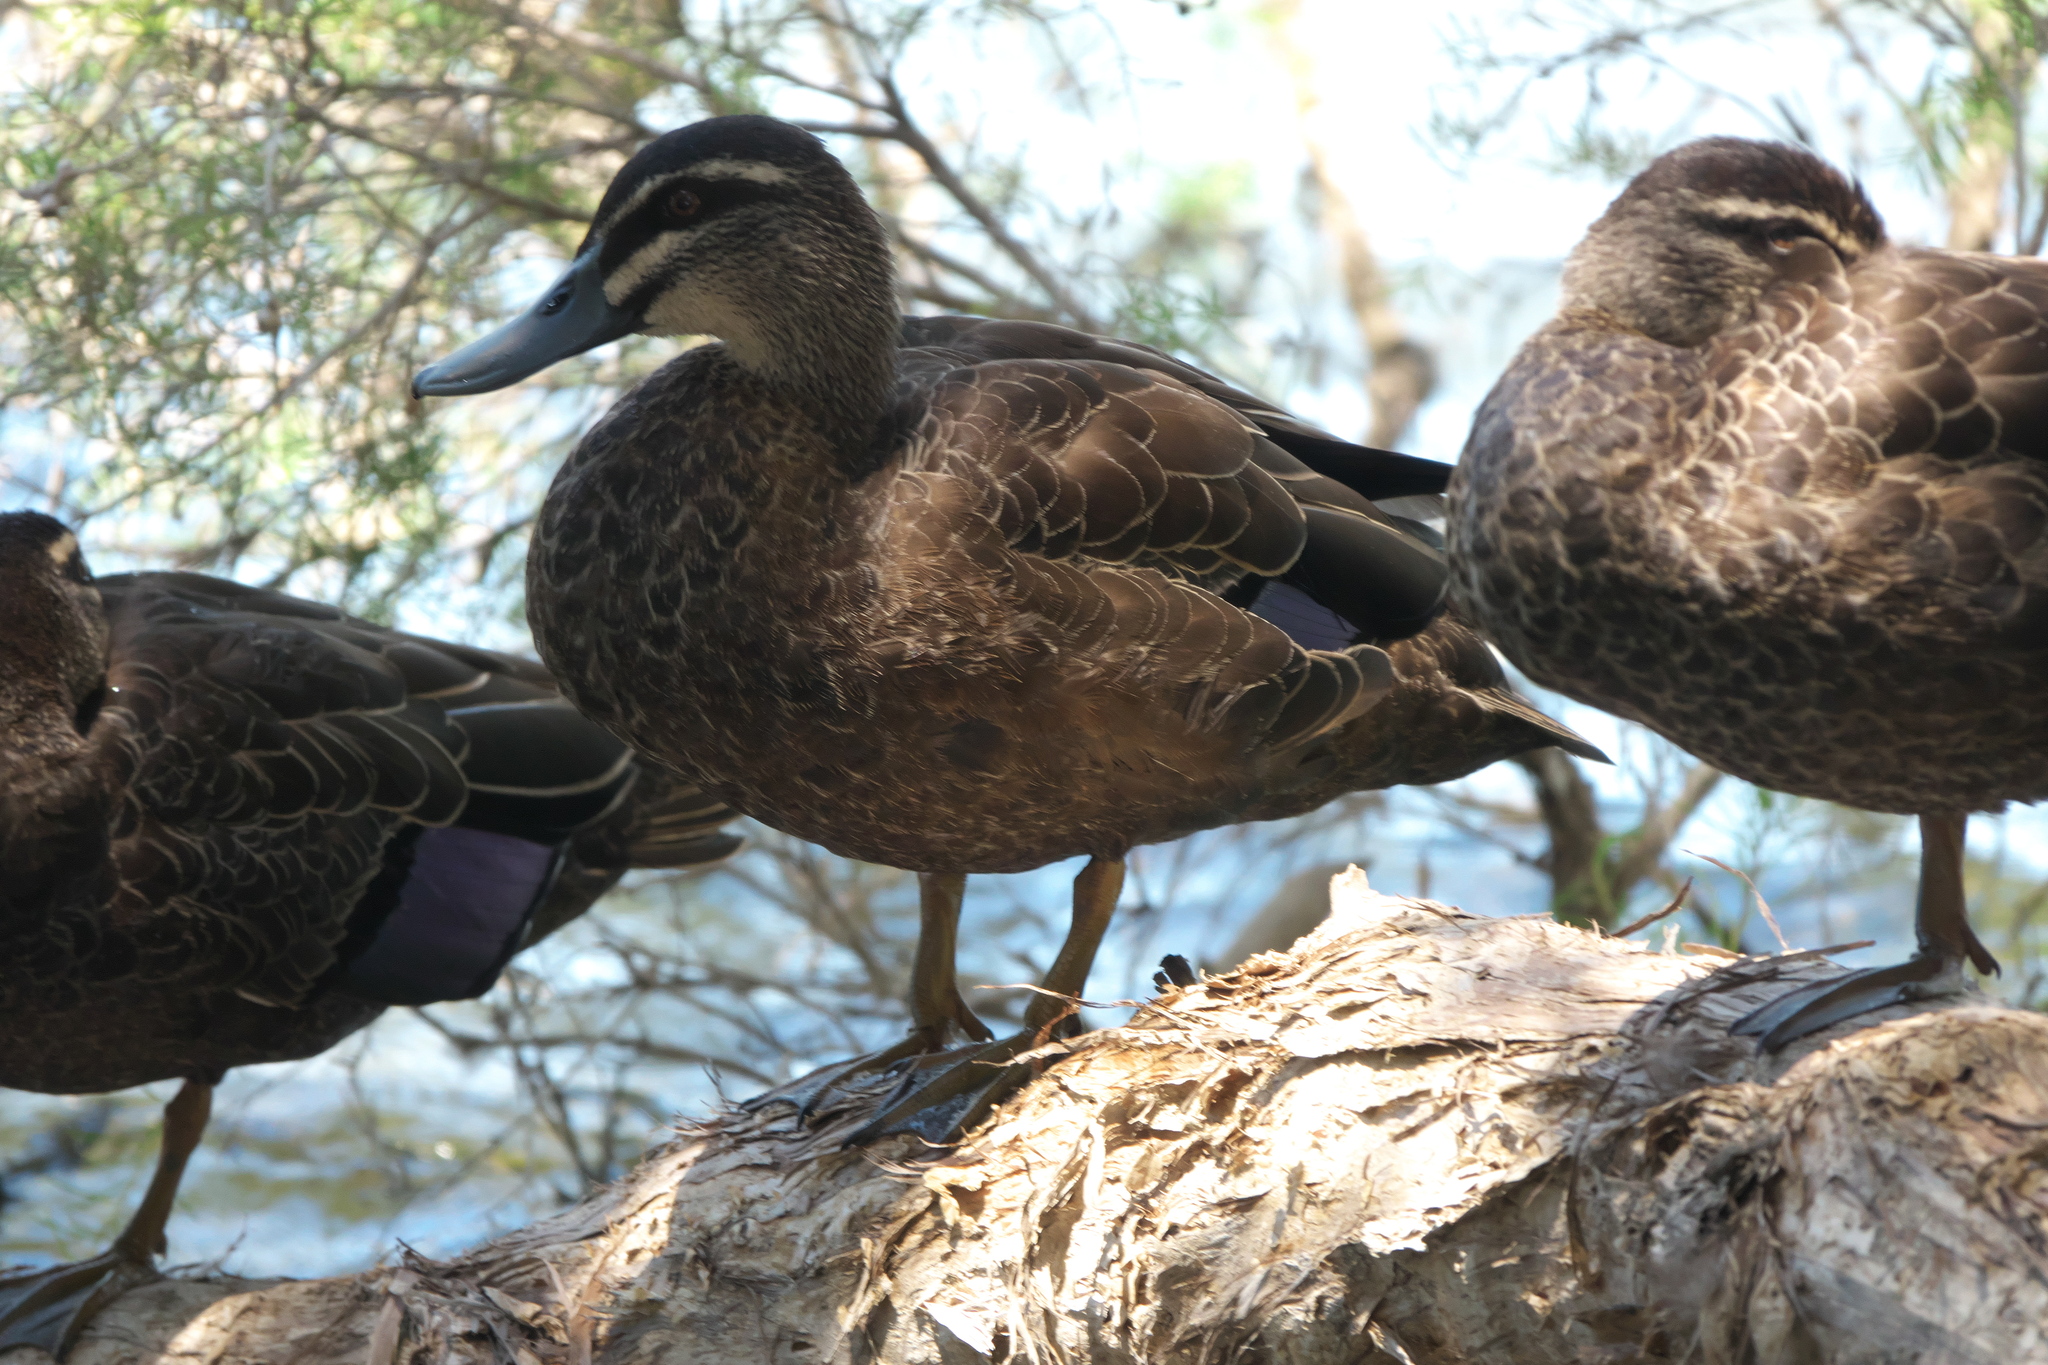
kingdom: Animalia
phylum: Chordata
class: Aves
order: Anseriformes
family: Anatidae
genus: Anas
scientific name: Anas superciliosa
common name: Pacific black duck
